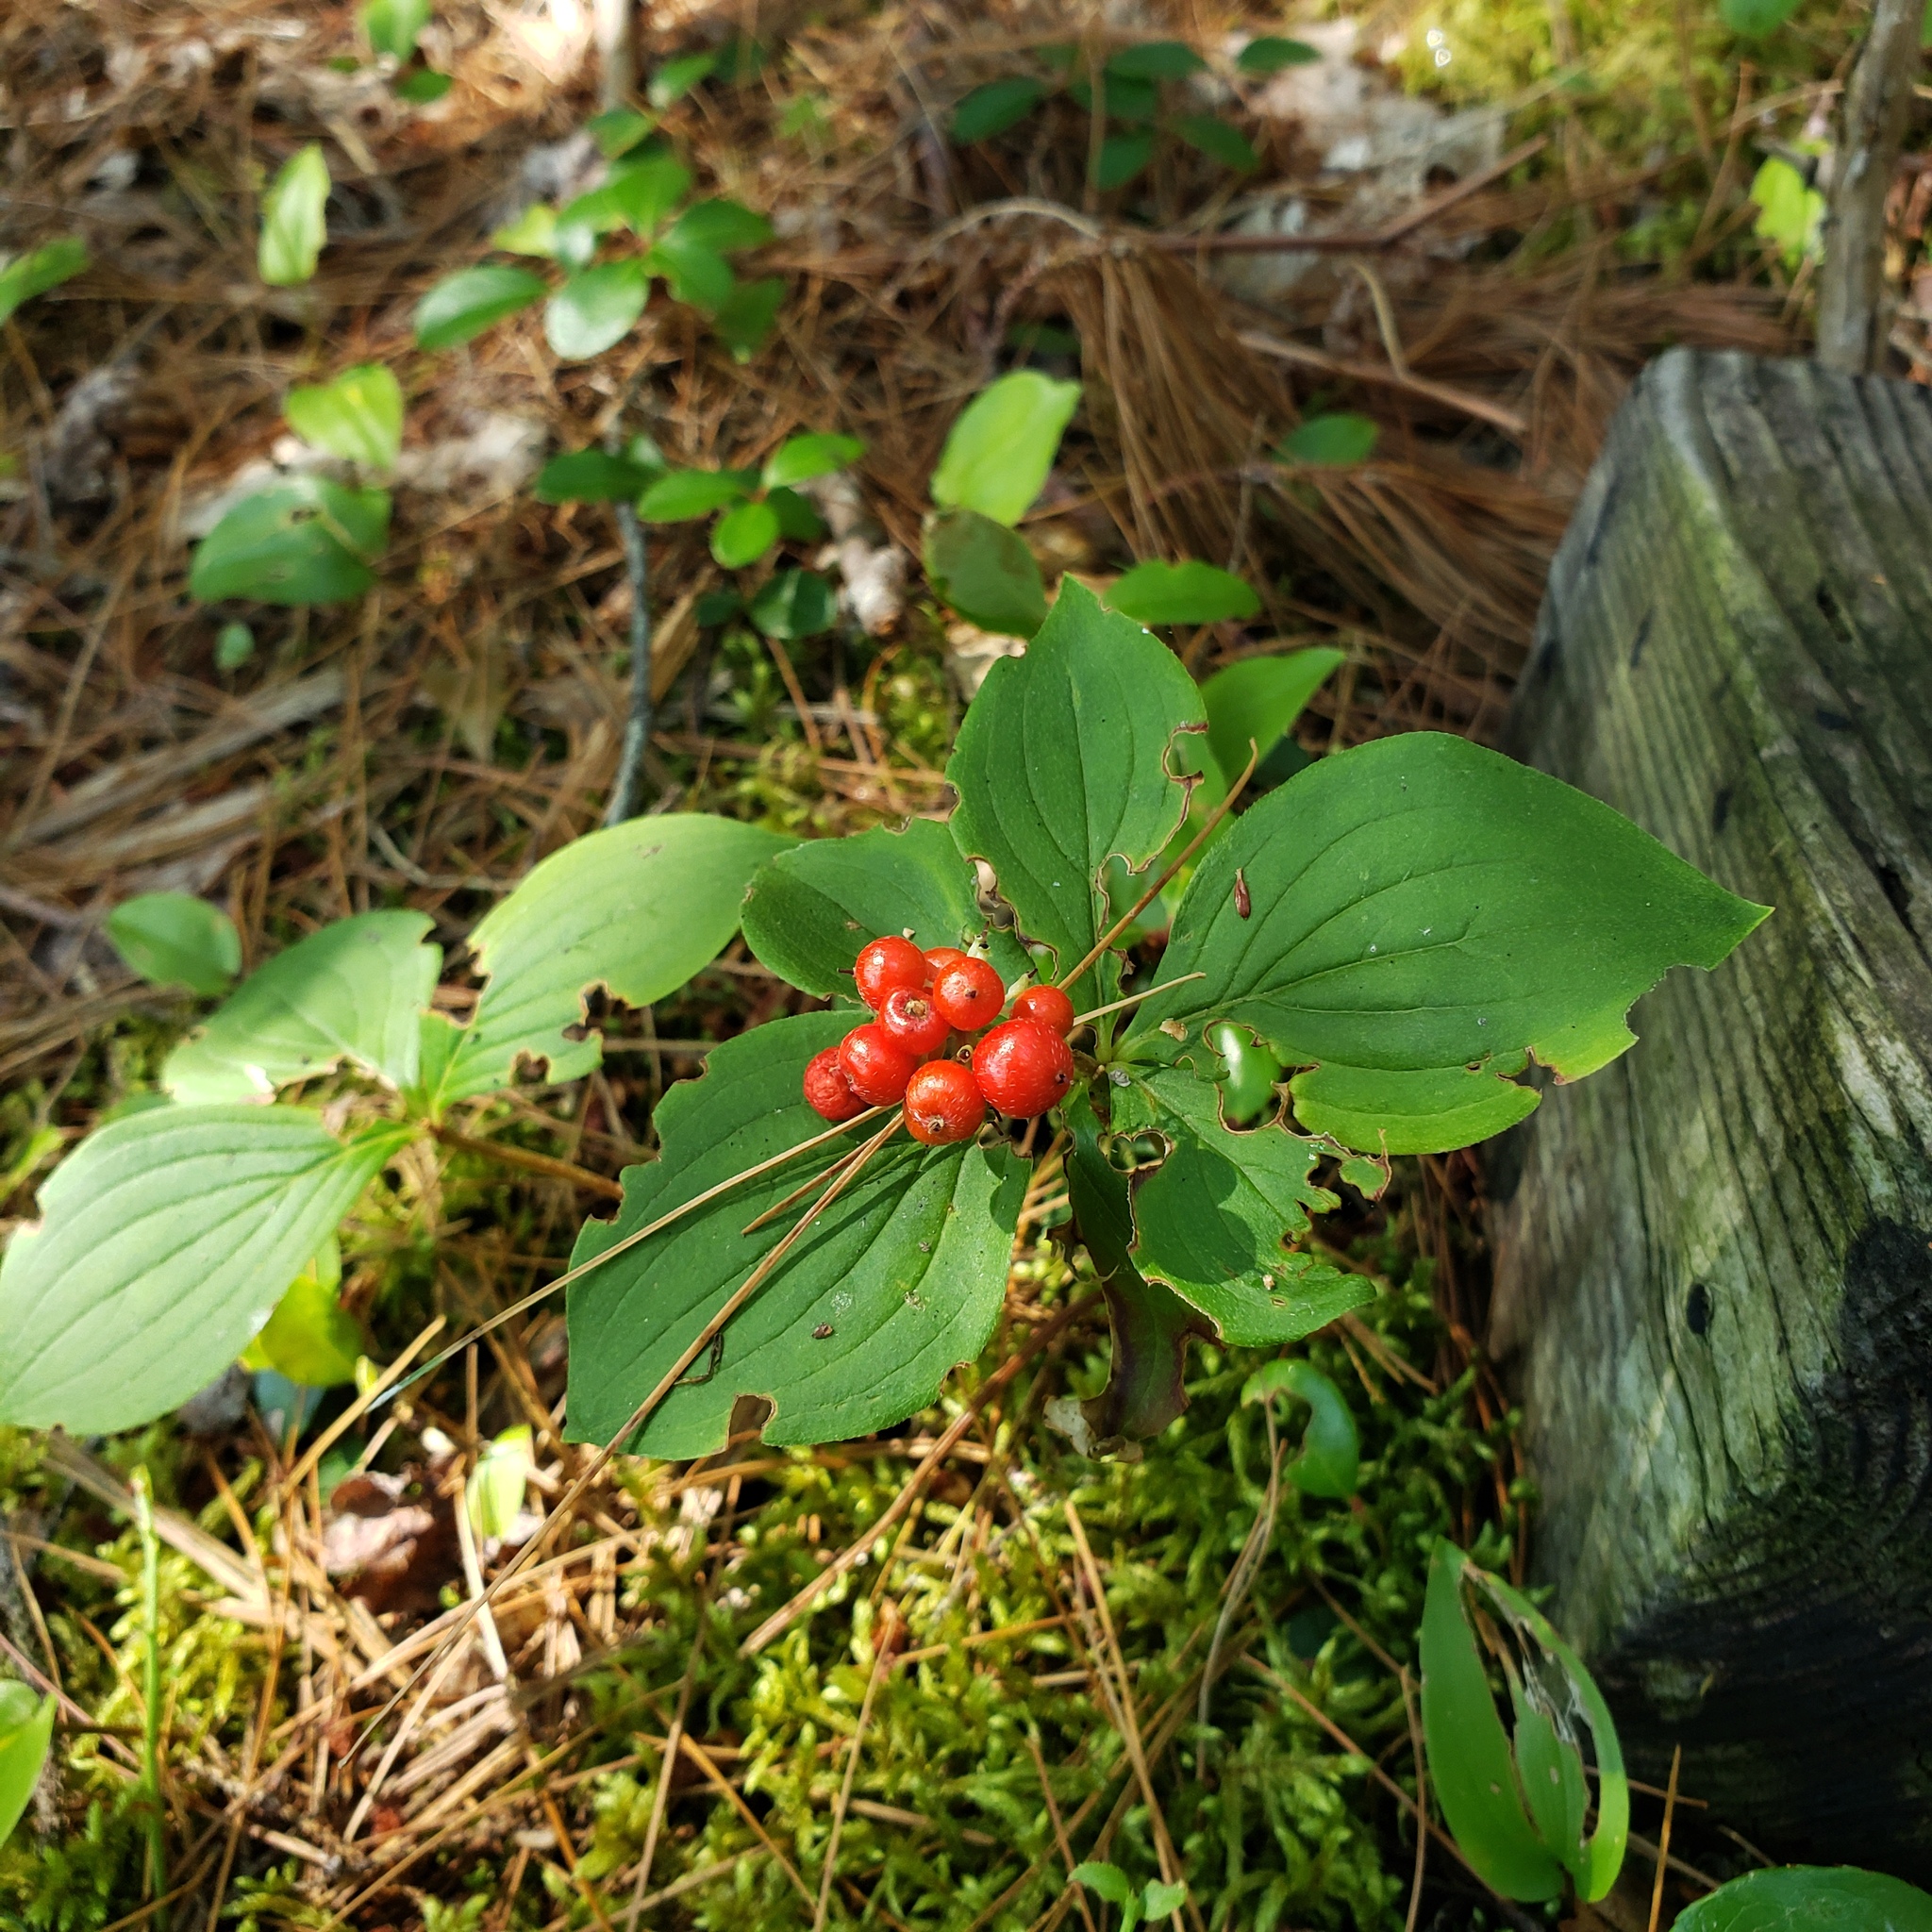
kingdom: Plantae
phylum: Tracheophyta
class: Magnoliopsida
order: Cornales
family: Cornaceae
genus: Cornus
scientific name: Cornus canadensis
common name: Creeping dogwood
